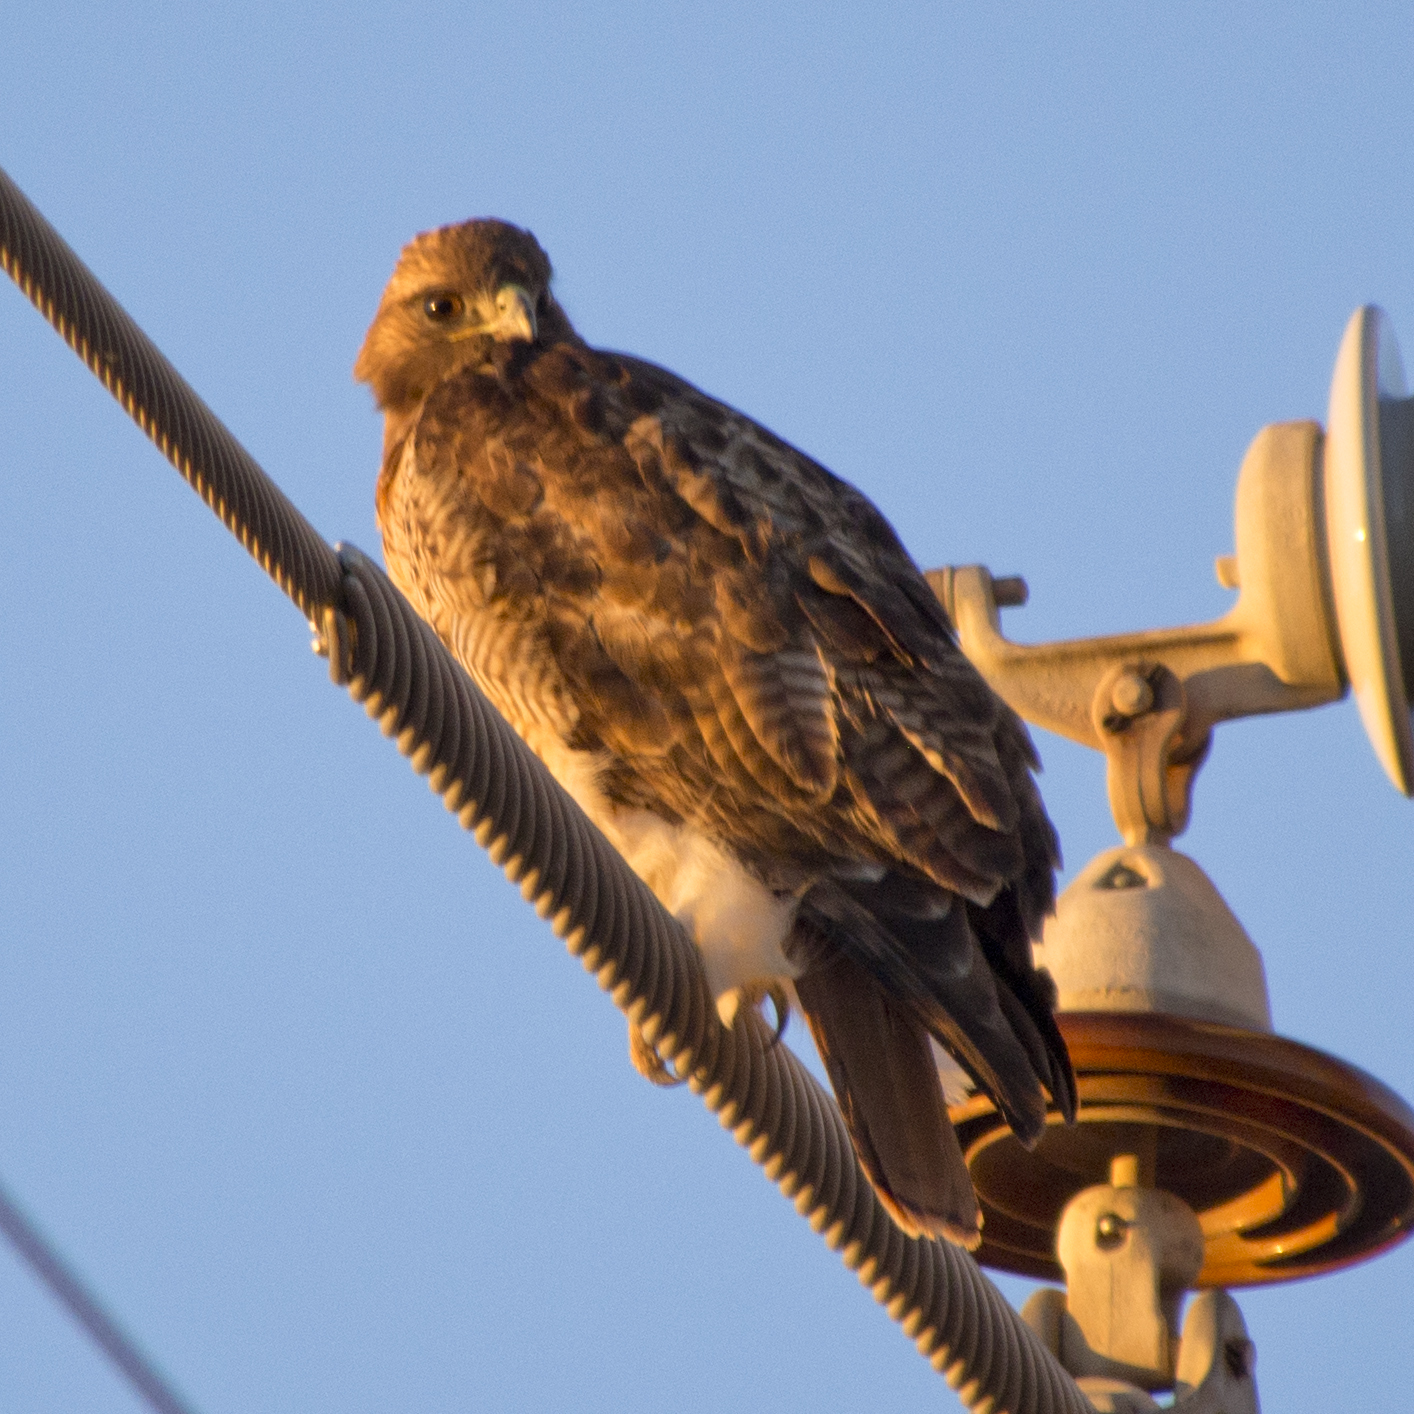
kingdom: Animalia
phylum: Chordata
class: Aves
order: Accipitriformes
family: Accipitridae
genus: Buteo
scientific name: Buteo jamaicensis
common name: Red-tailed hawk
